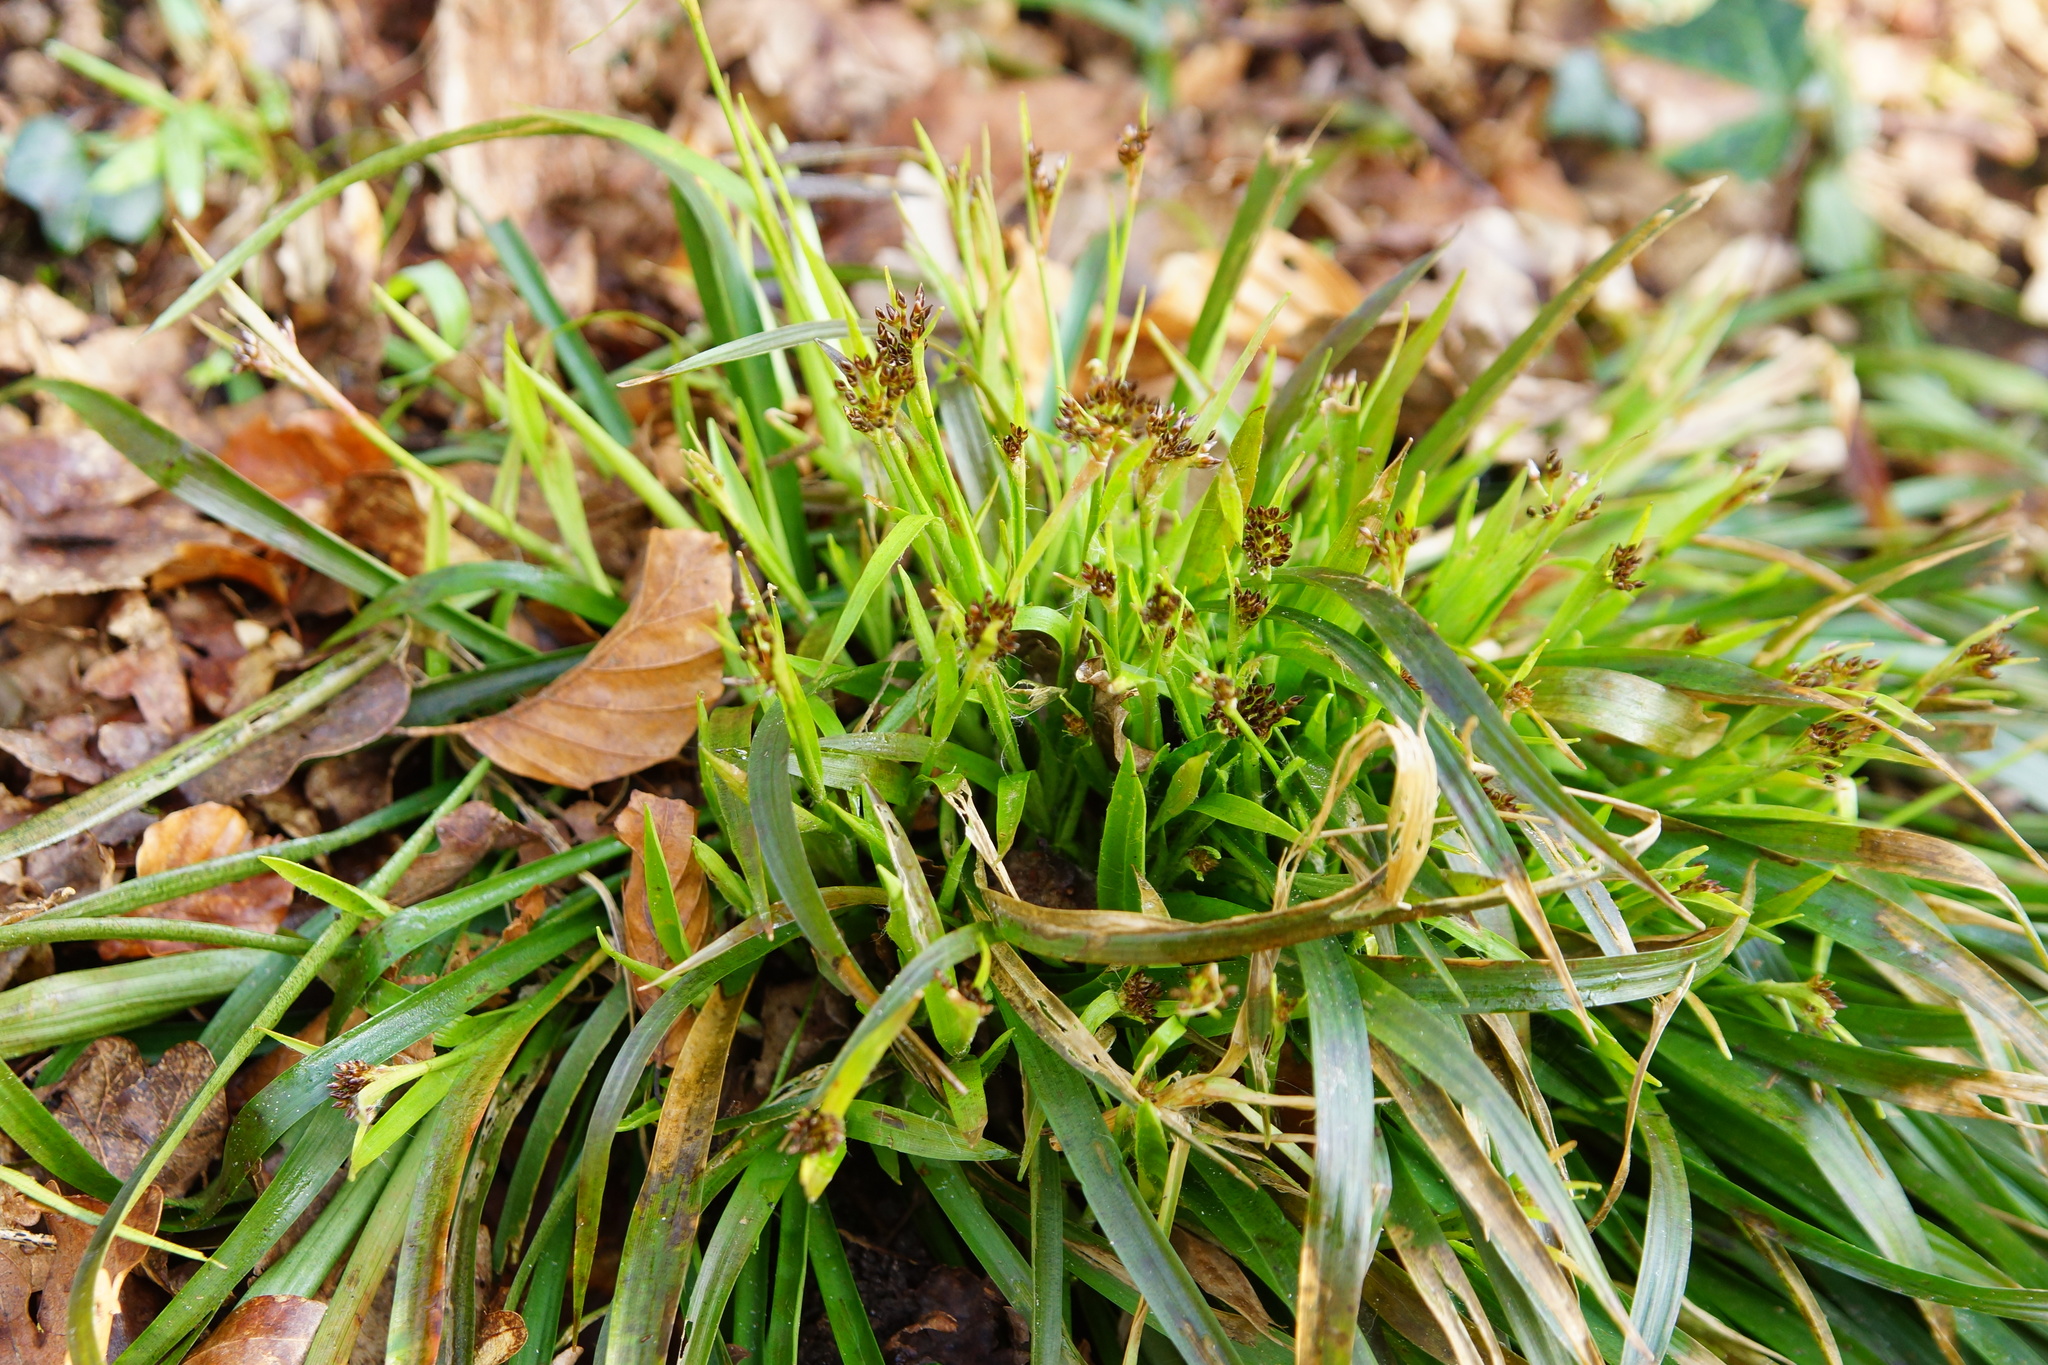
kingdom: Plantae
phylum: Tracheophyta
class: Liliopsida
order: Poales
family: Juncaceae
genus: Luzula
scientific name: Luzula pilosa
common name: Hairy wood-rush
